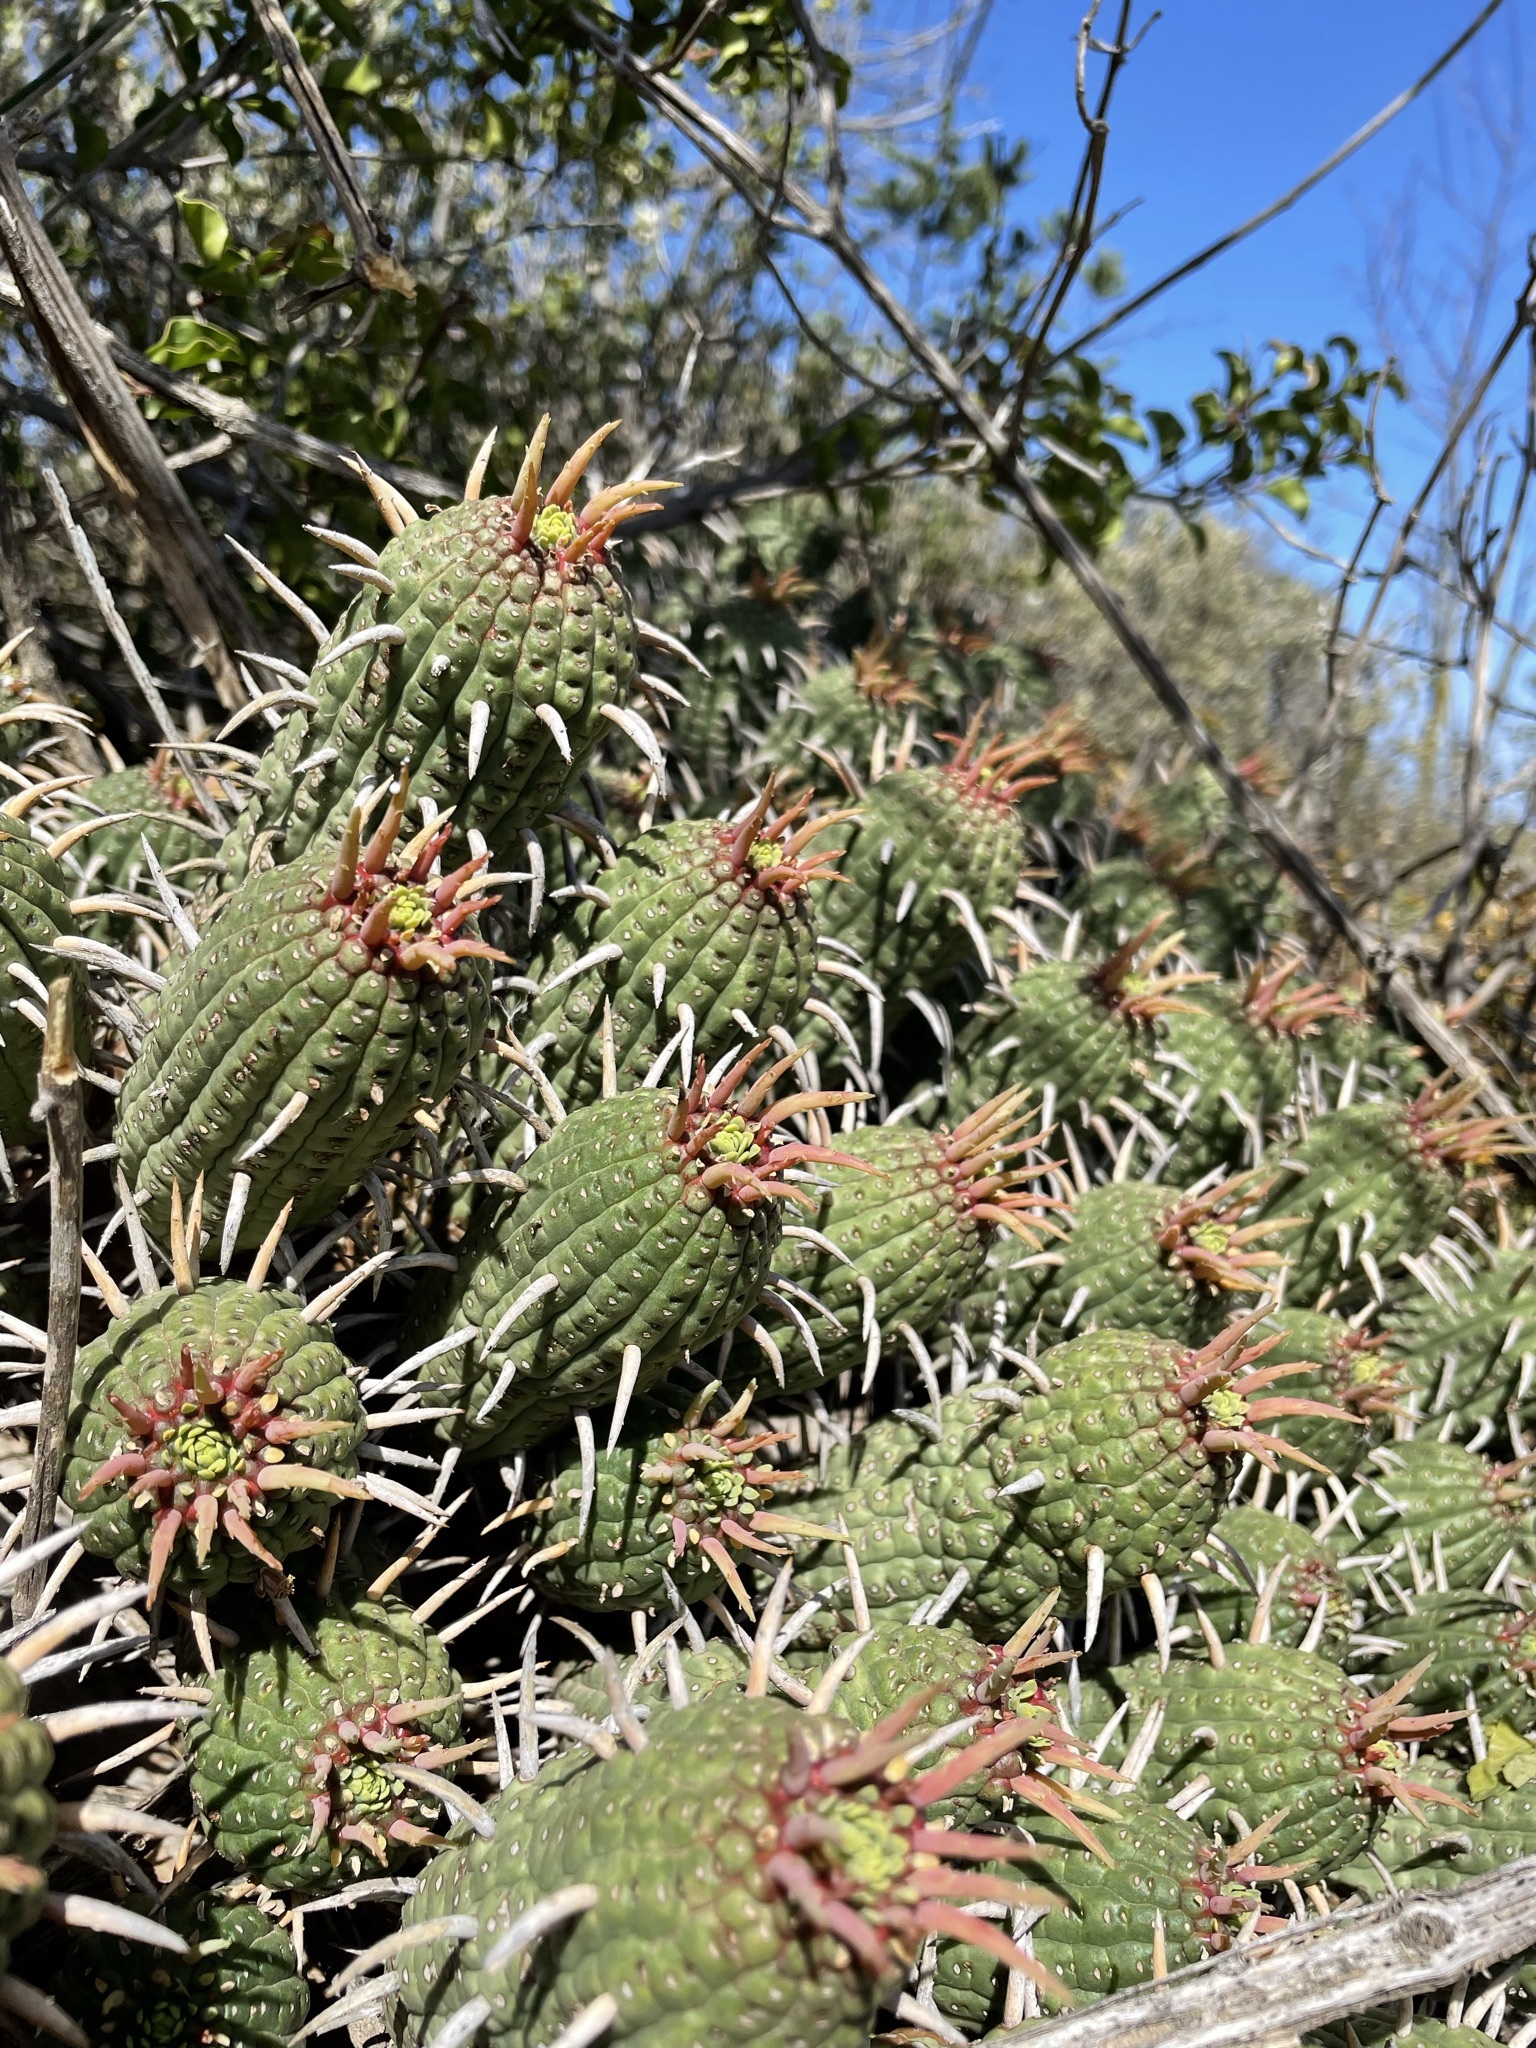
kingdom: Plantae
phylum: Tracheophyta
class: Magnoliopsida
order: Malpighiales
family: Euphorbiaceae
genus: Euphorbia
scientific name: Euphorbia ferox
